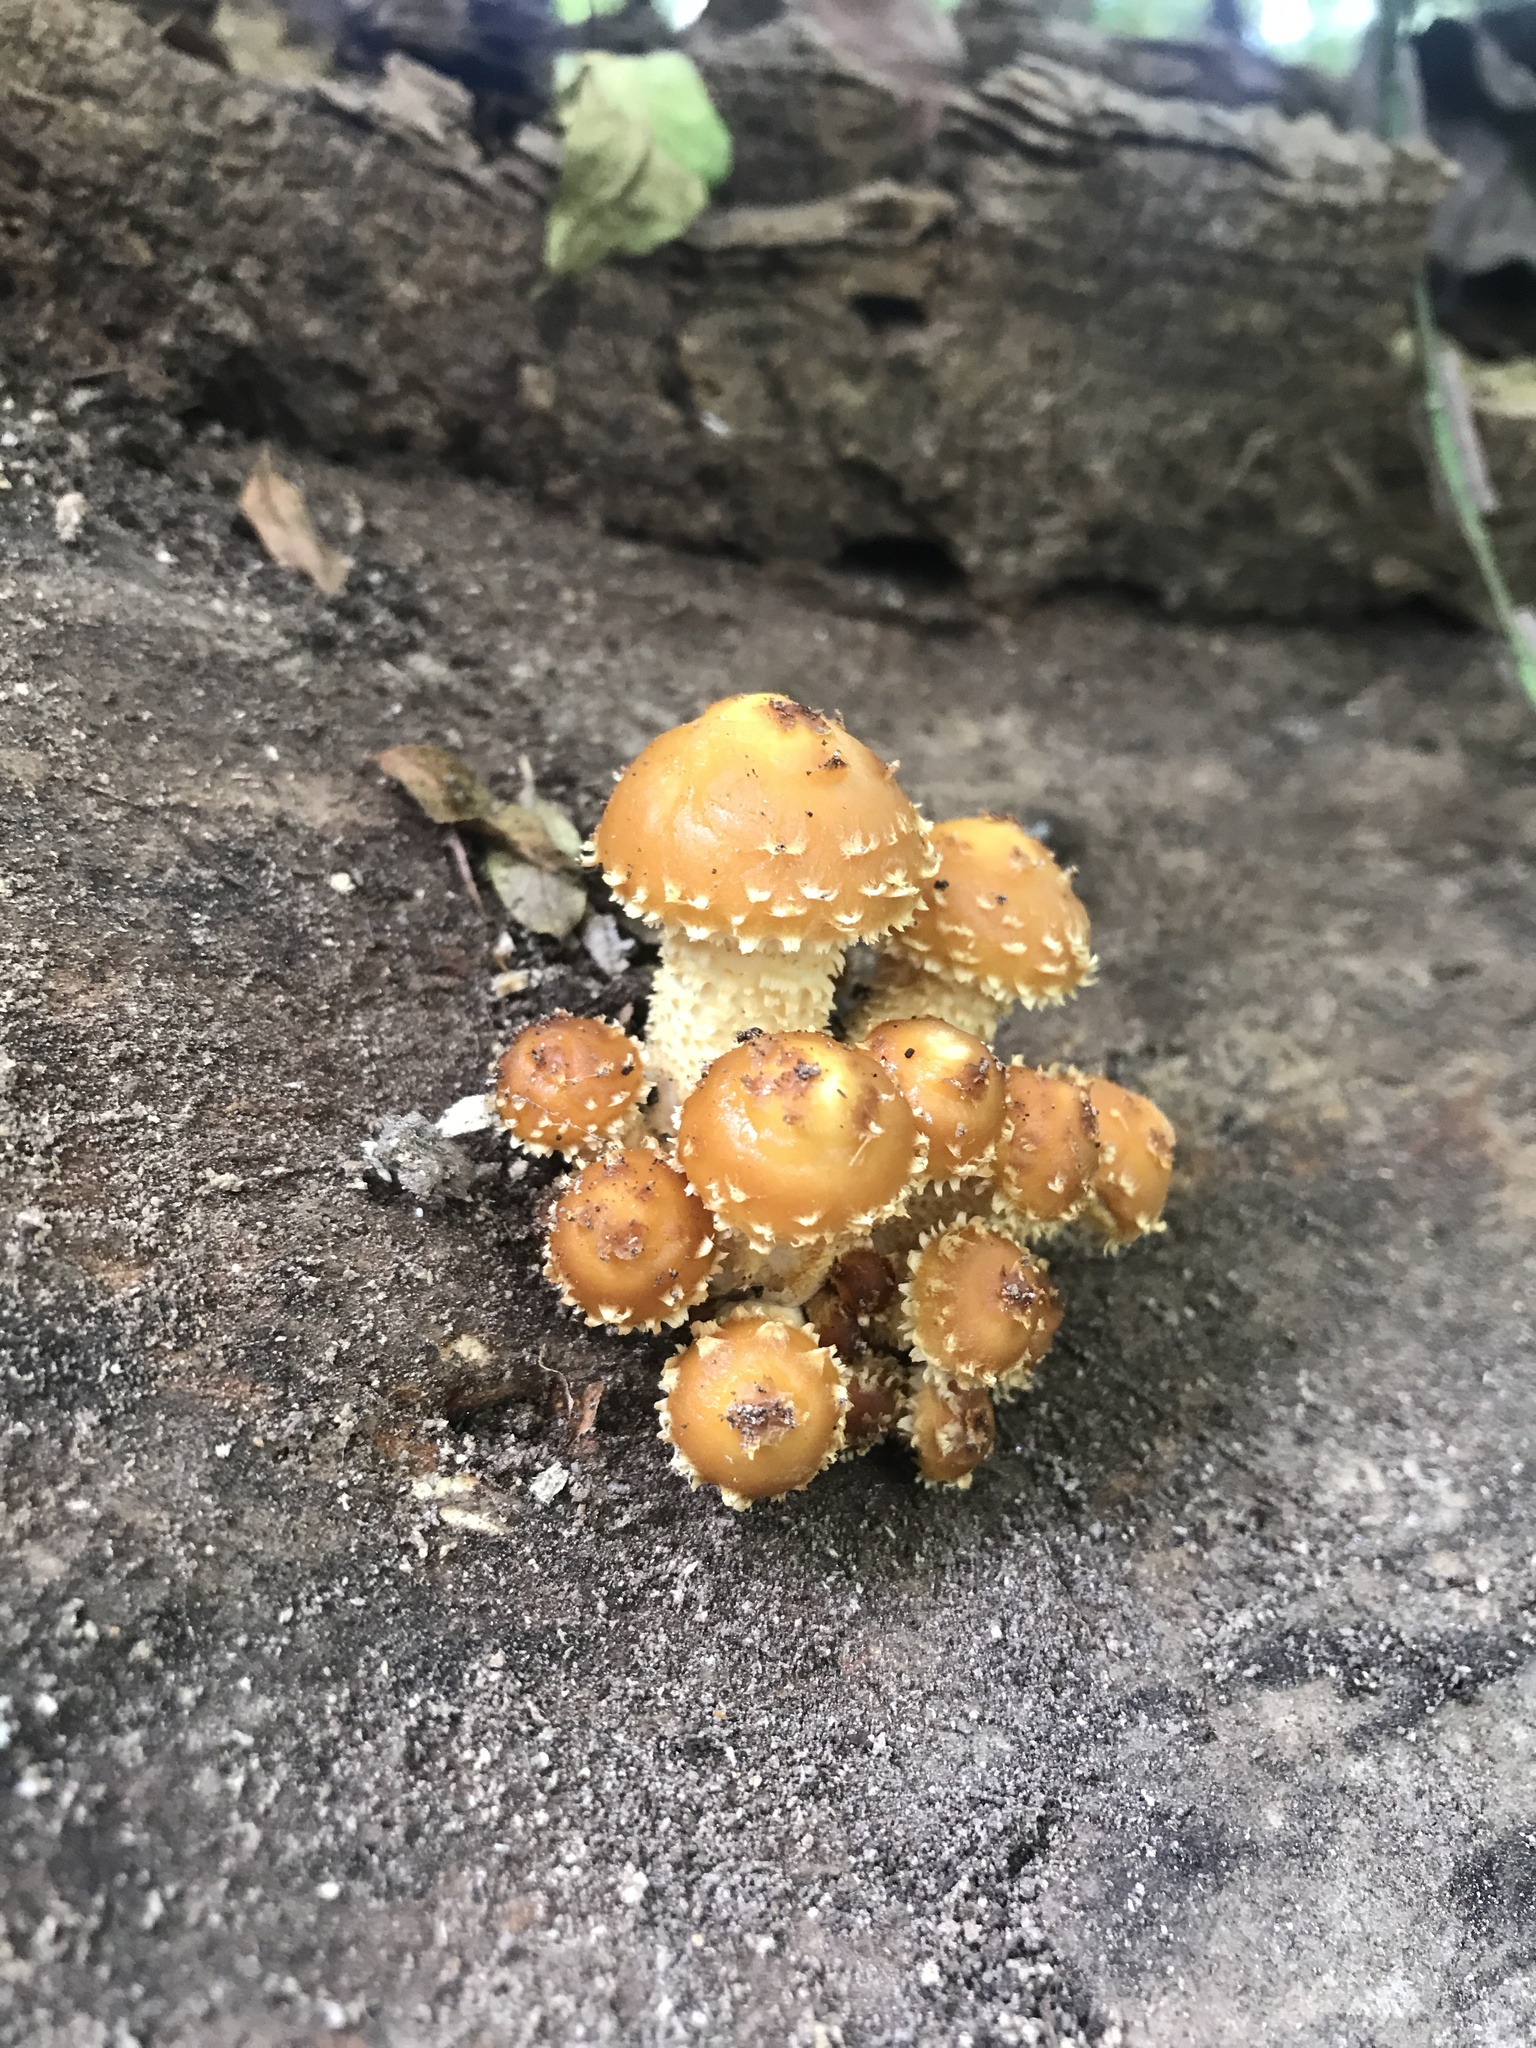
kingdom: Fungi
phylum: Basidiomycota
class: Agaricomycetes
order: Agaricales
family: Strophariaceae
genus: Pholiota
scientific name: Pholiota aurivella
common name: Golden scalycap
